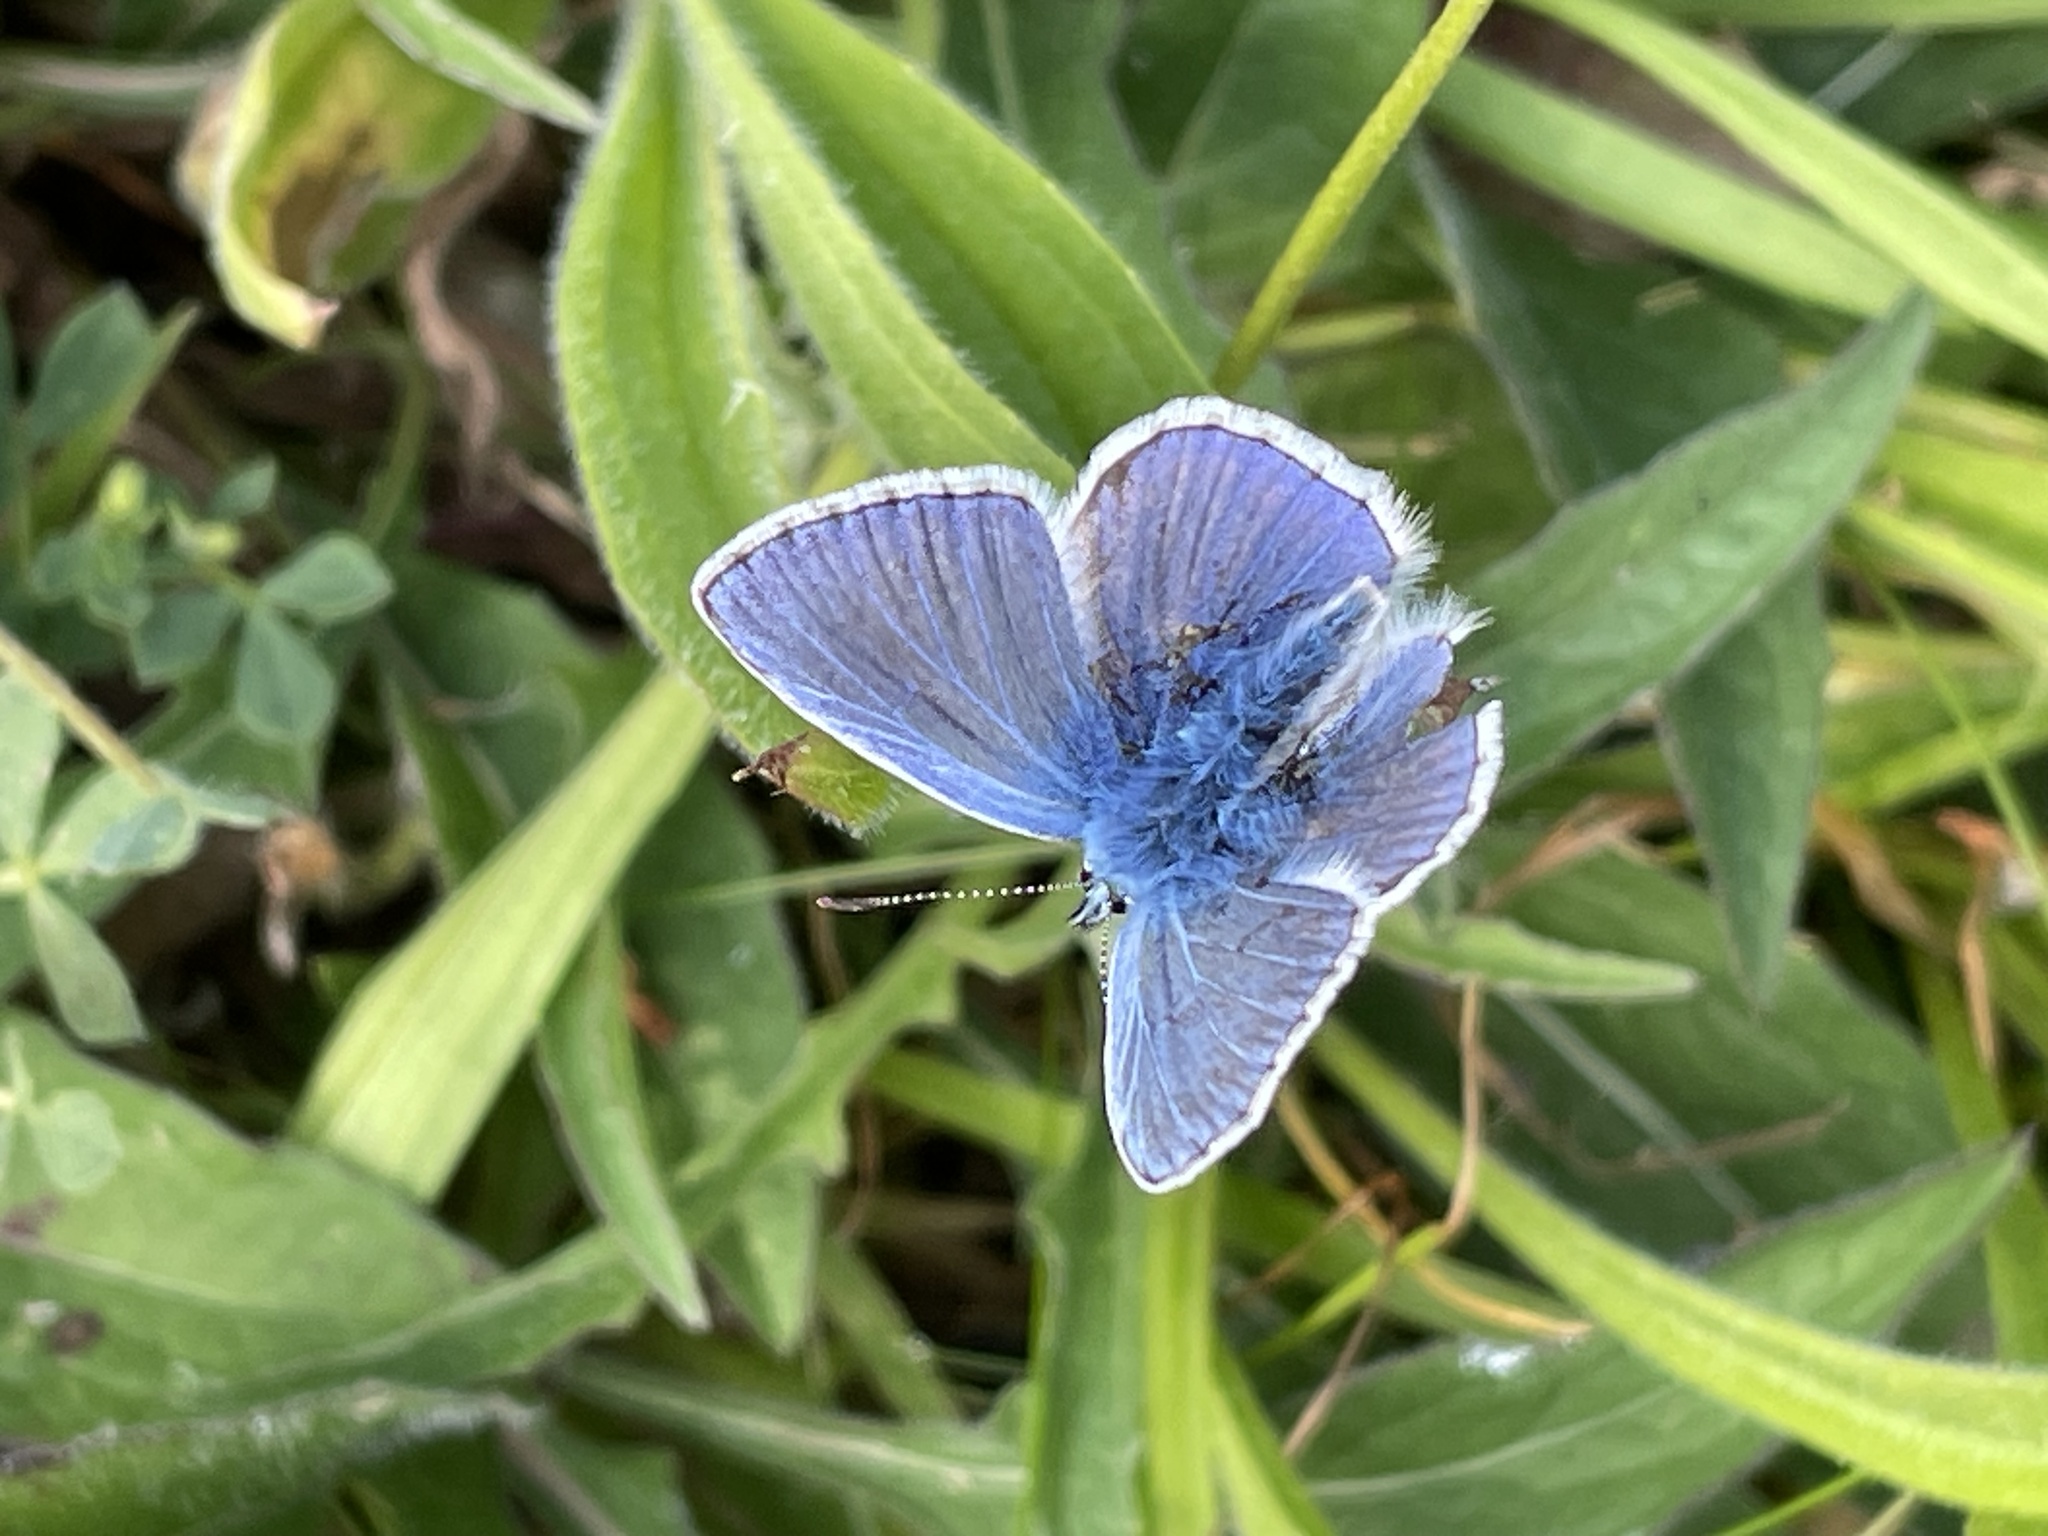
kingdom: Animalia
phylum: Arthropoda
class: Insecta
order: Lepidoptera
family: Lycaenidae
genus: Polyommatus
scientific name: Polyommatus icarus
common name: Common blue
